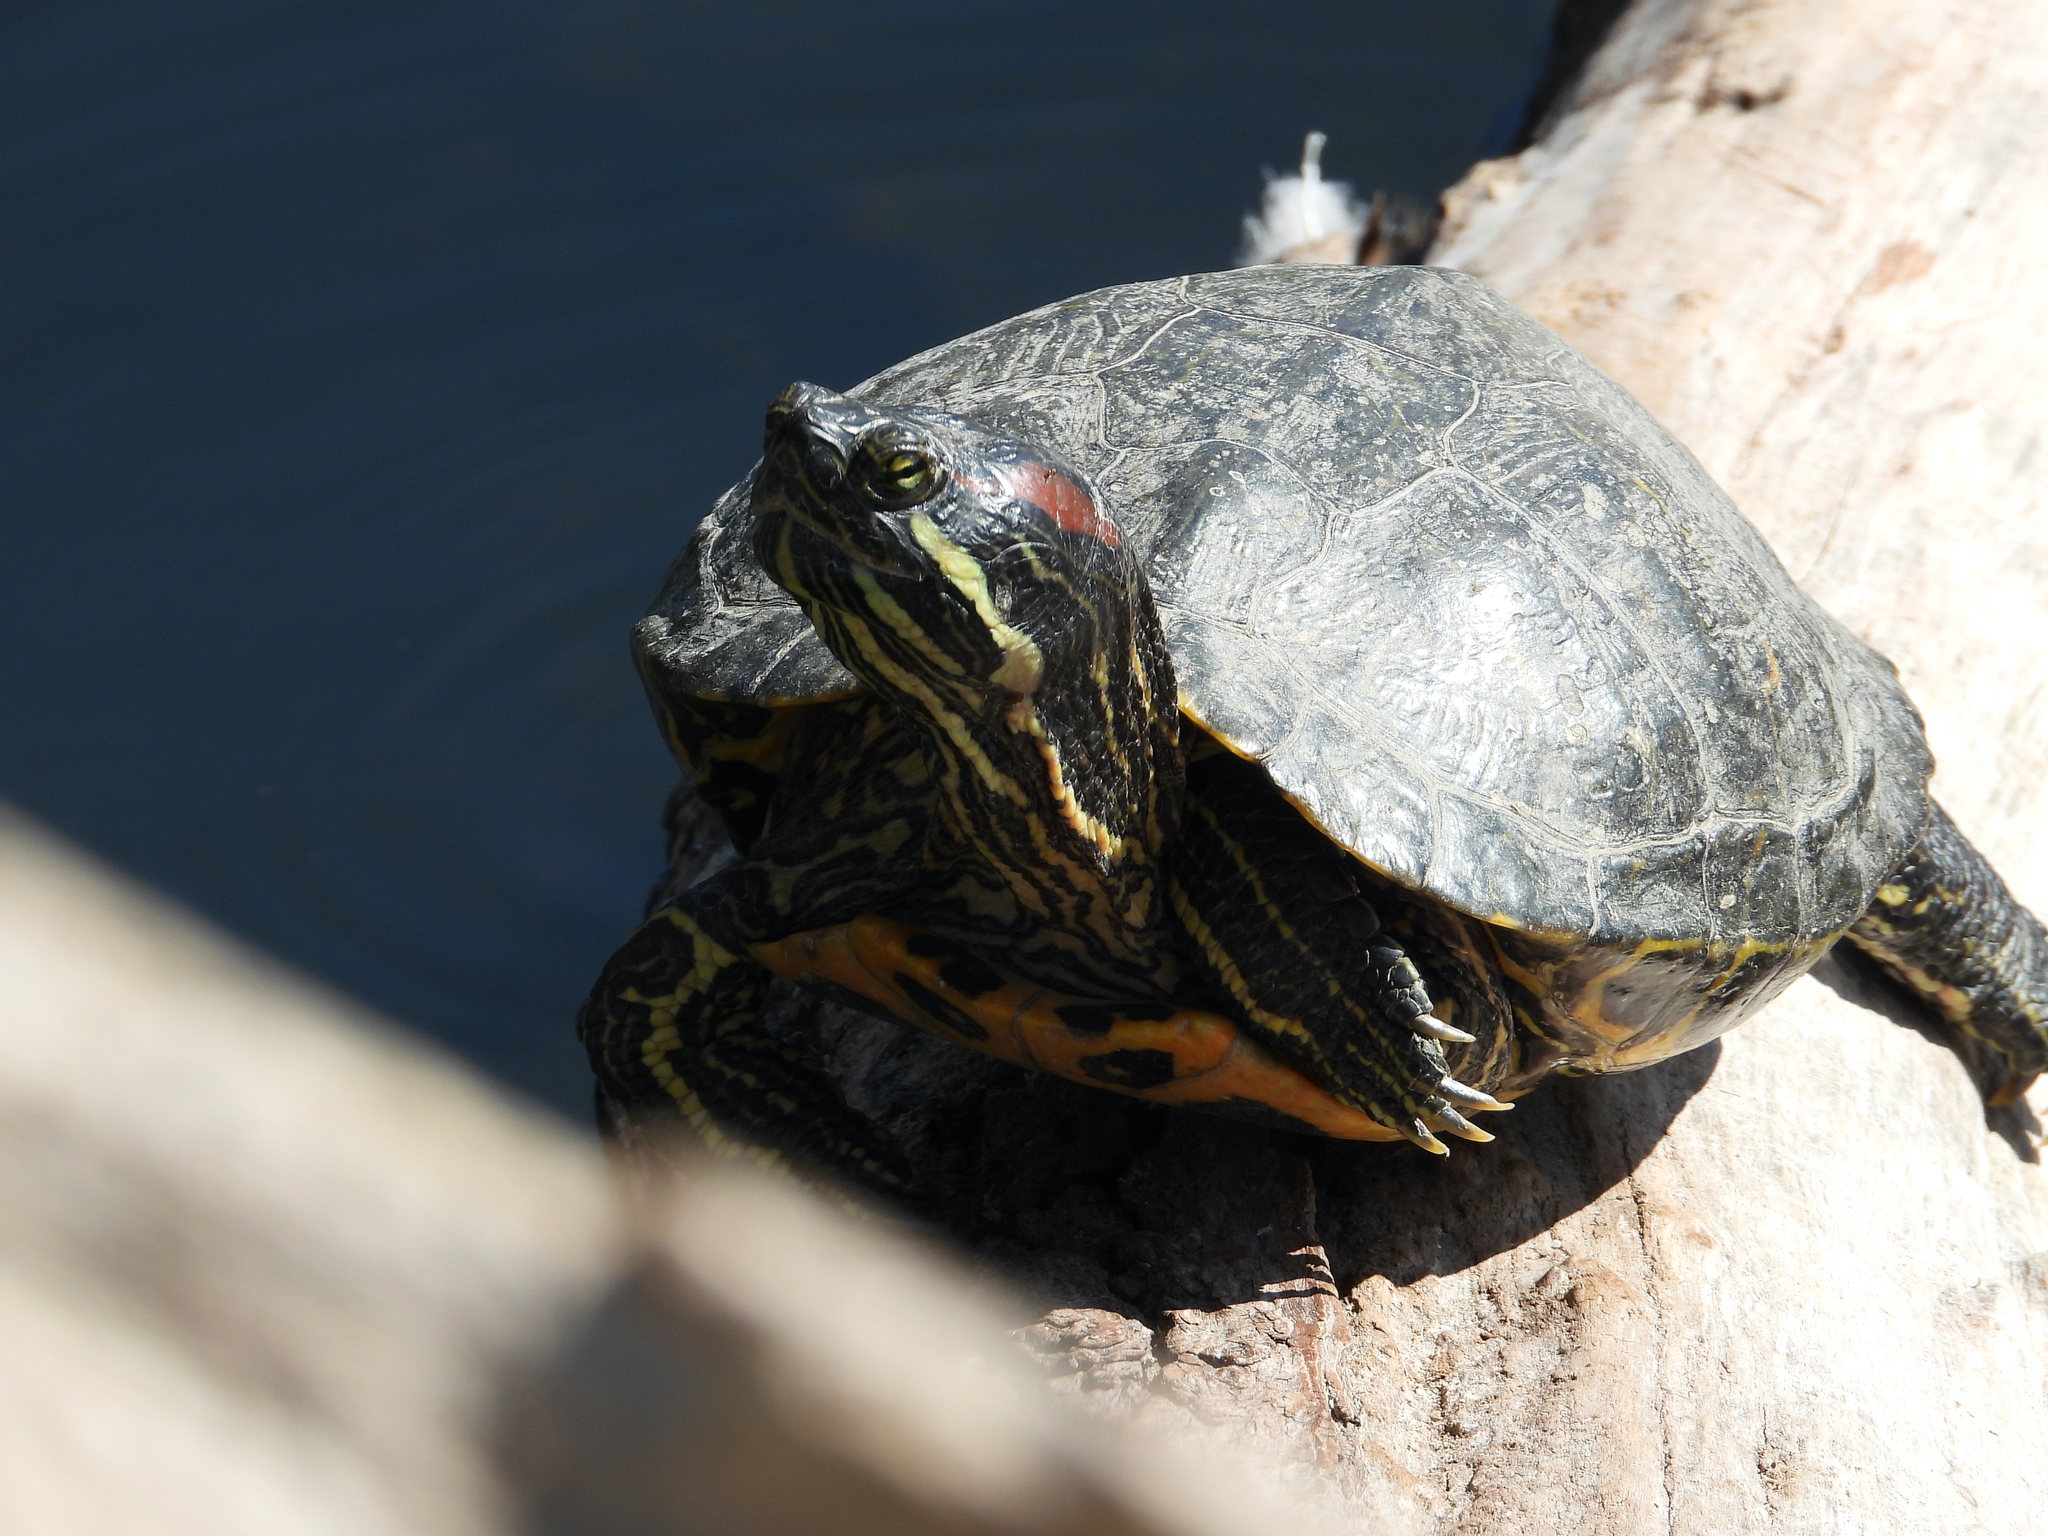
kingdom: Animalia
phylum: Chordata
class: Testudines
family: Emydidae
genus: Trachemys
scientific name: Trachemys scripta
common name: Slider
